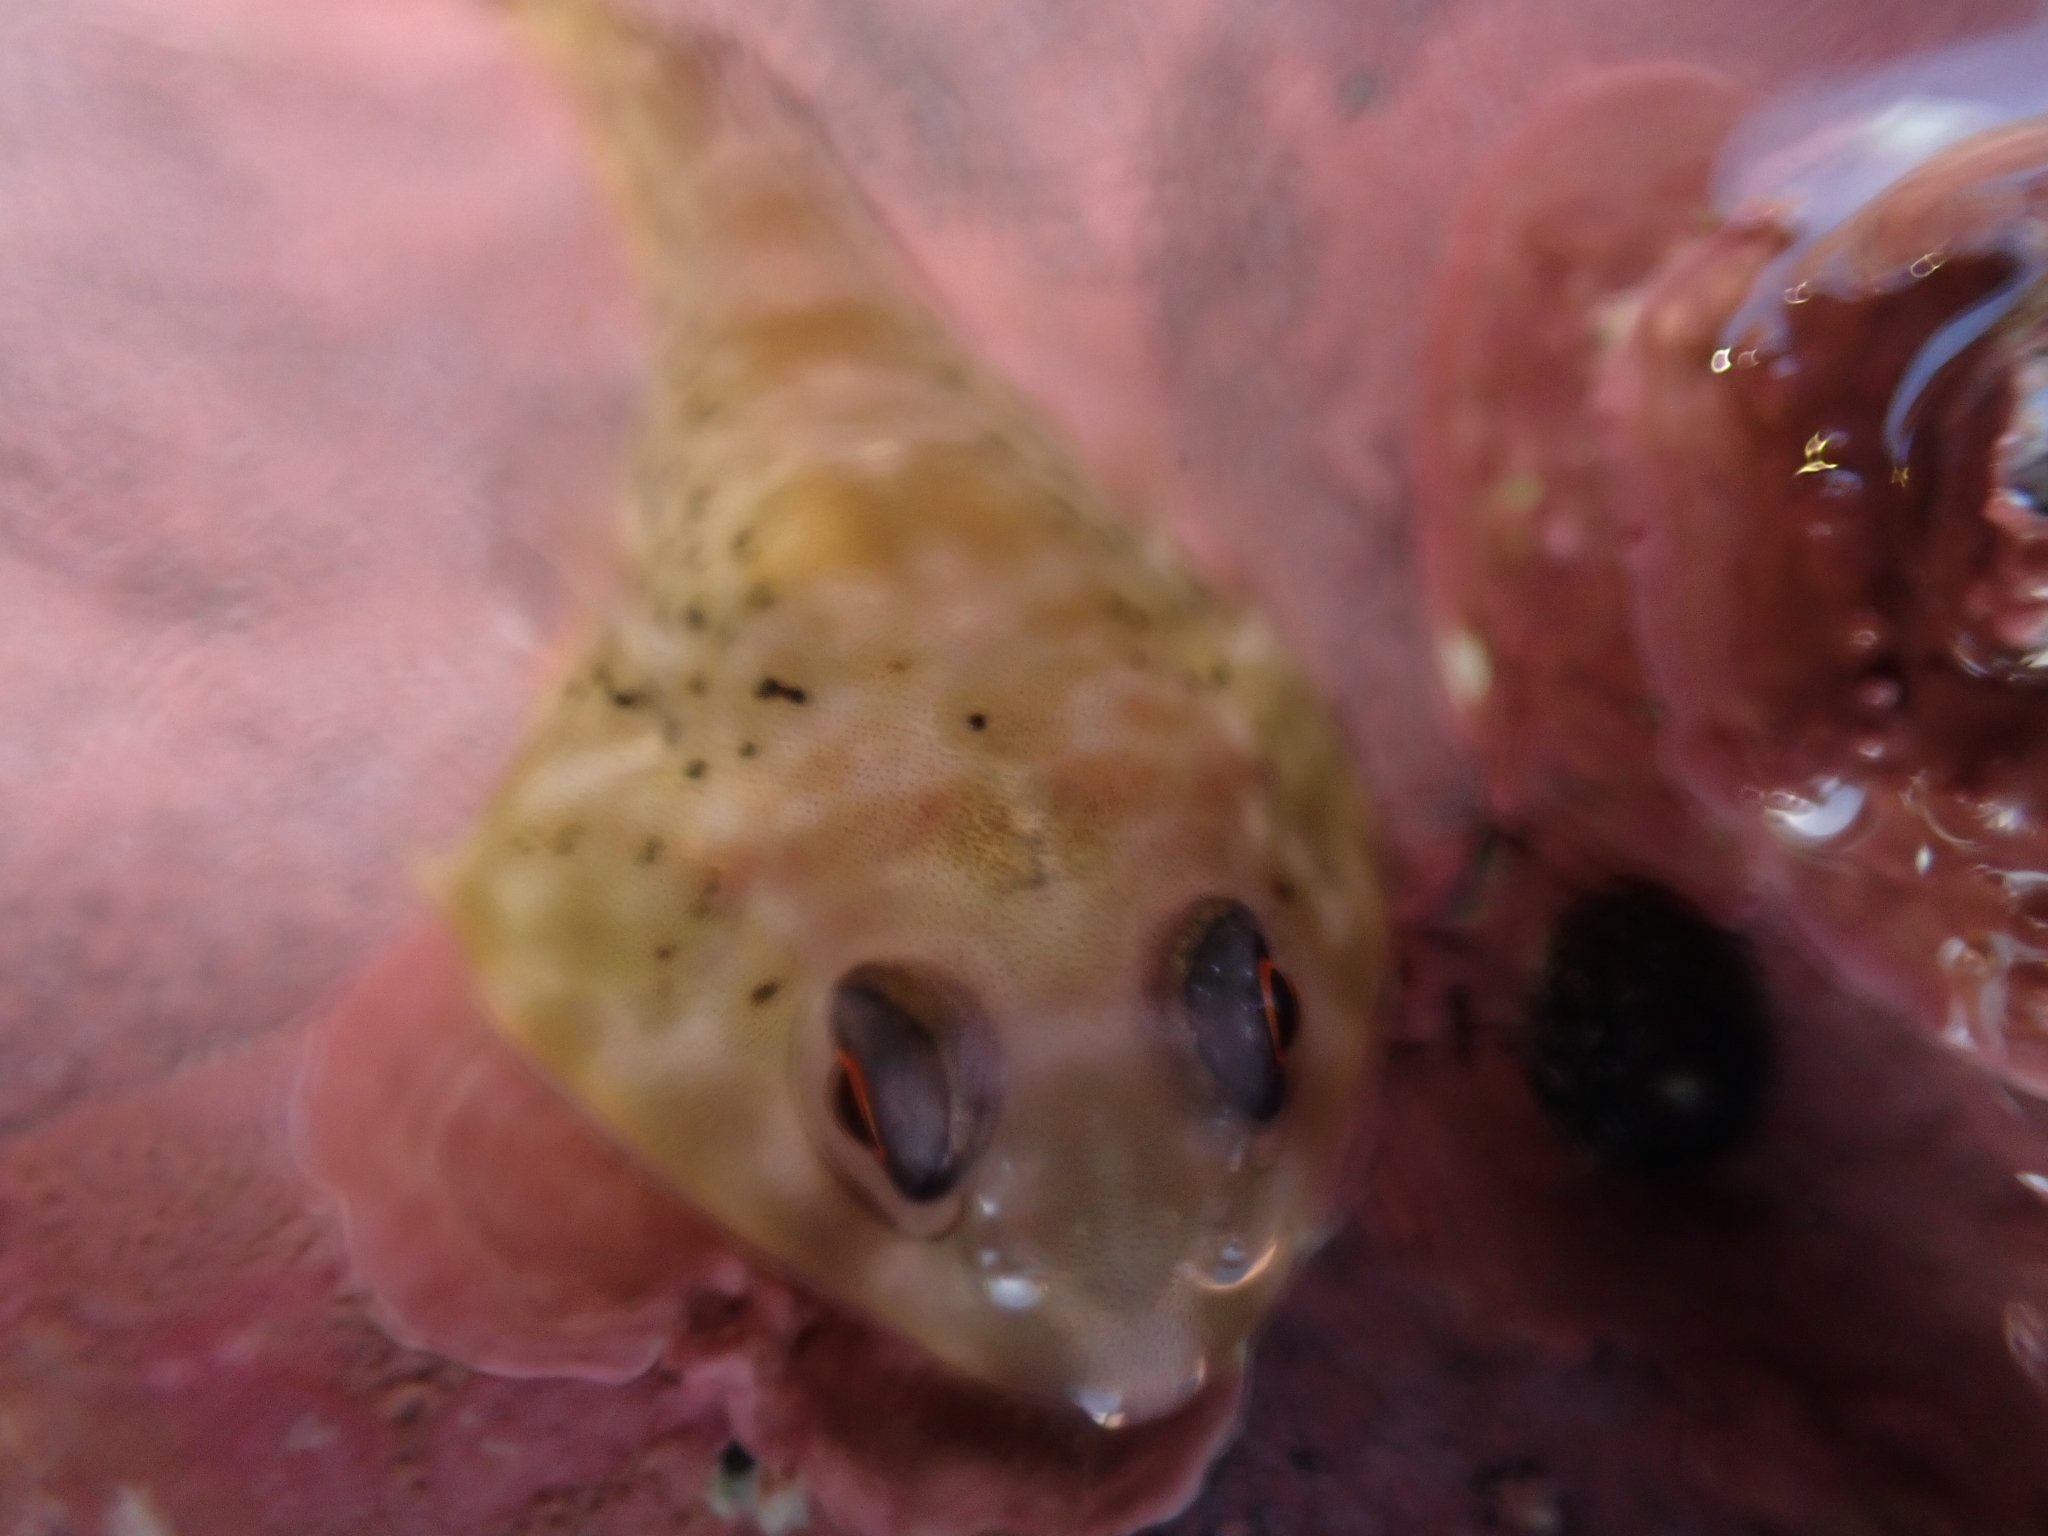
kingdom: Animalia
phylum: Chordata
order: Gobiesociformes
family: Gobiesocidae
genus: Diplocrepis
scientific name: Diplocrepis puniceus
